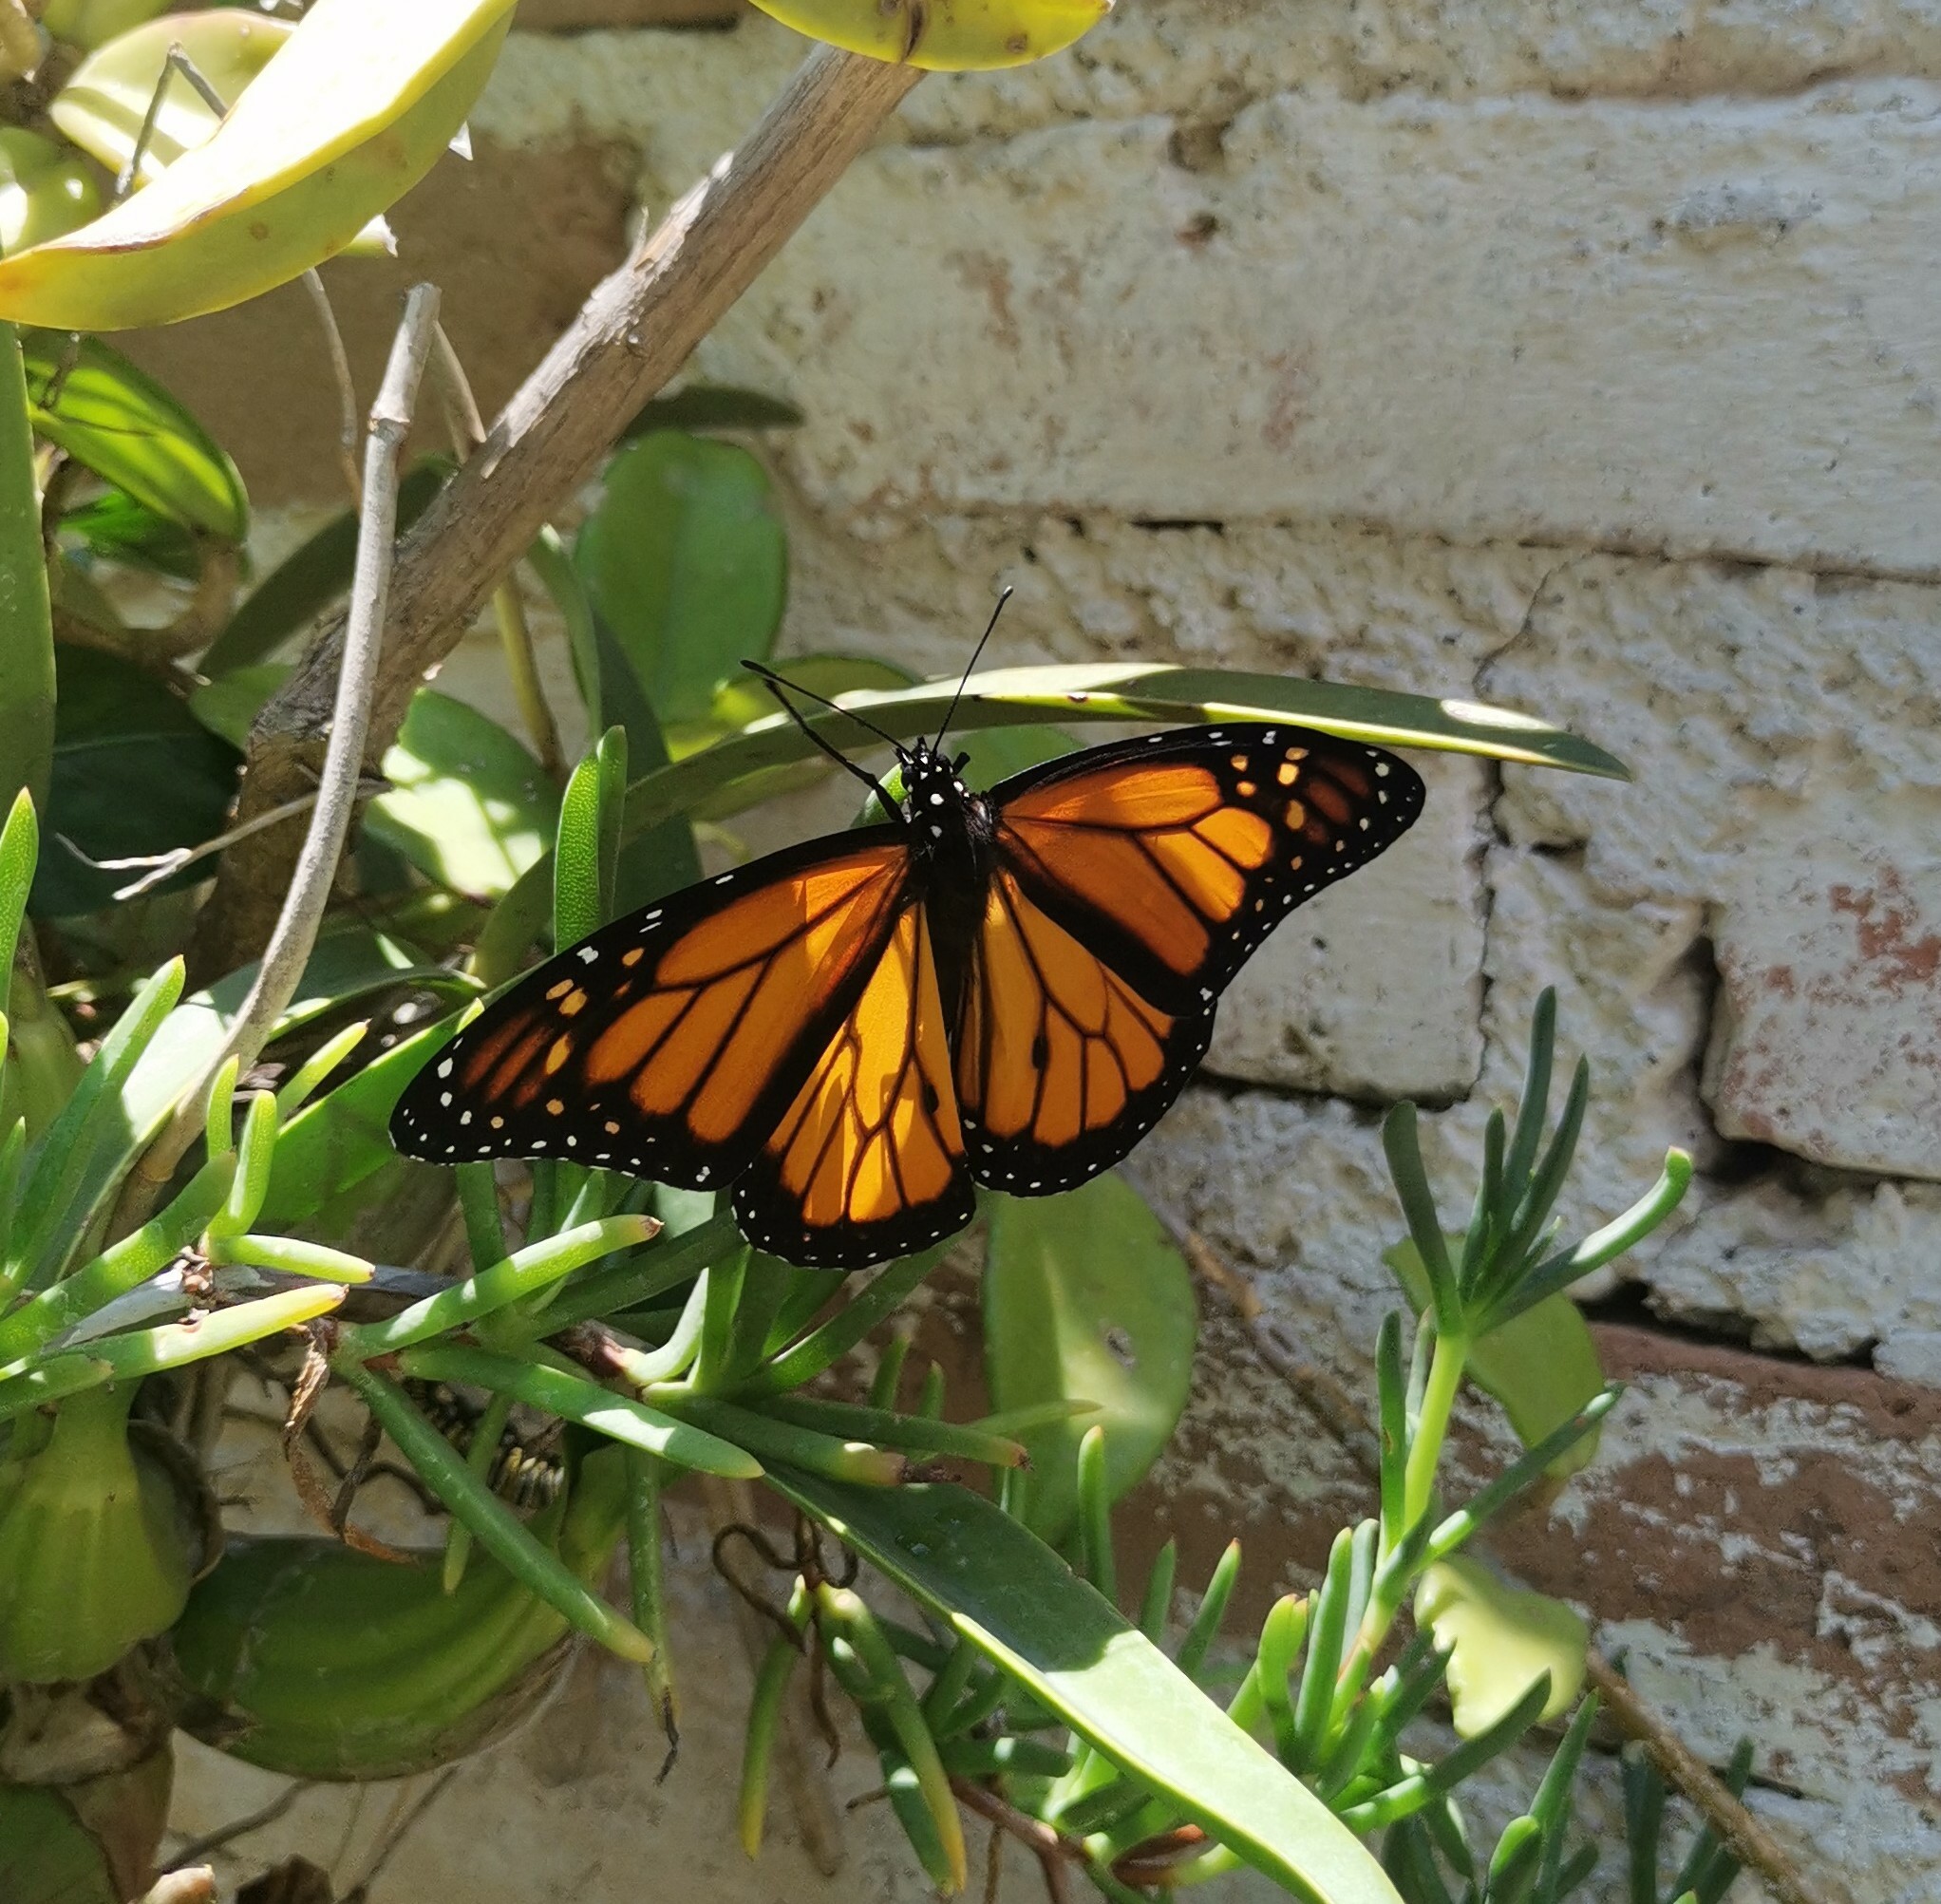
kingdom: Animalia
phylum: Arthropoda
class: Insecta
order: Lepidoptera
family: Nymphalidae
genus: Danaus
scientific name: Danaus plexippus
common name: Monarch
